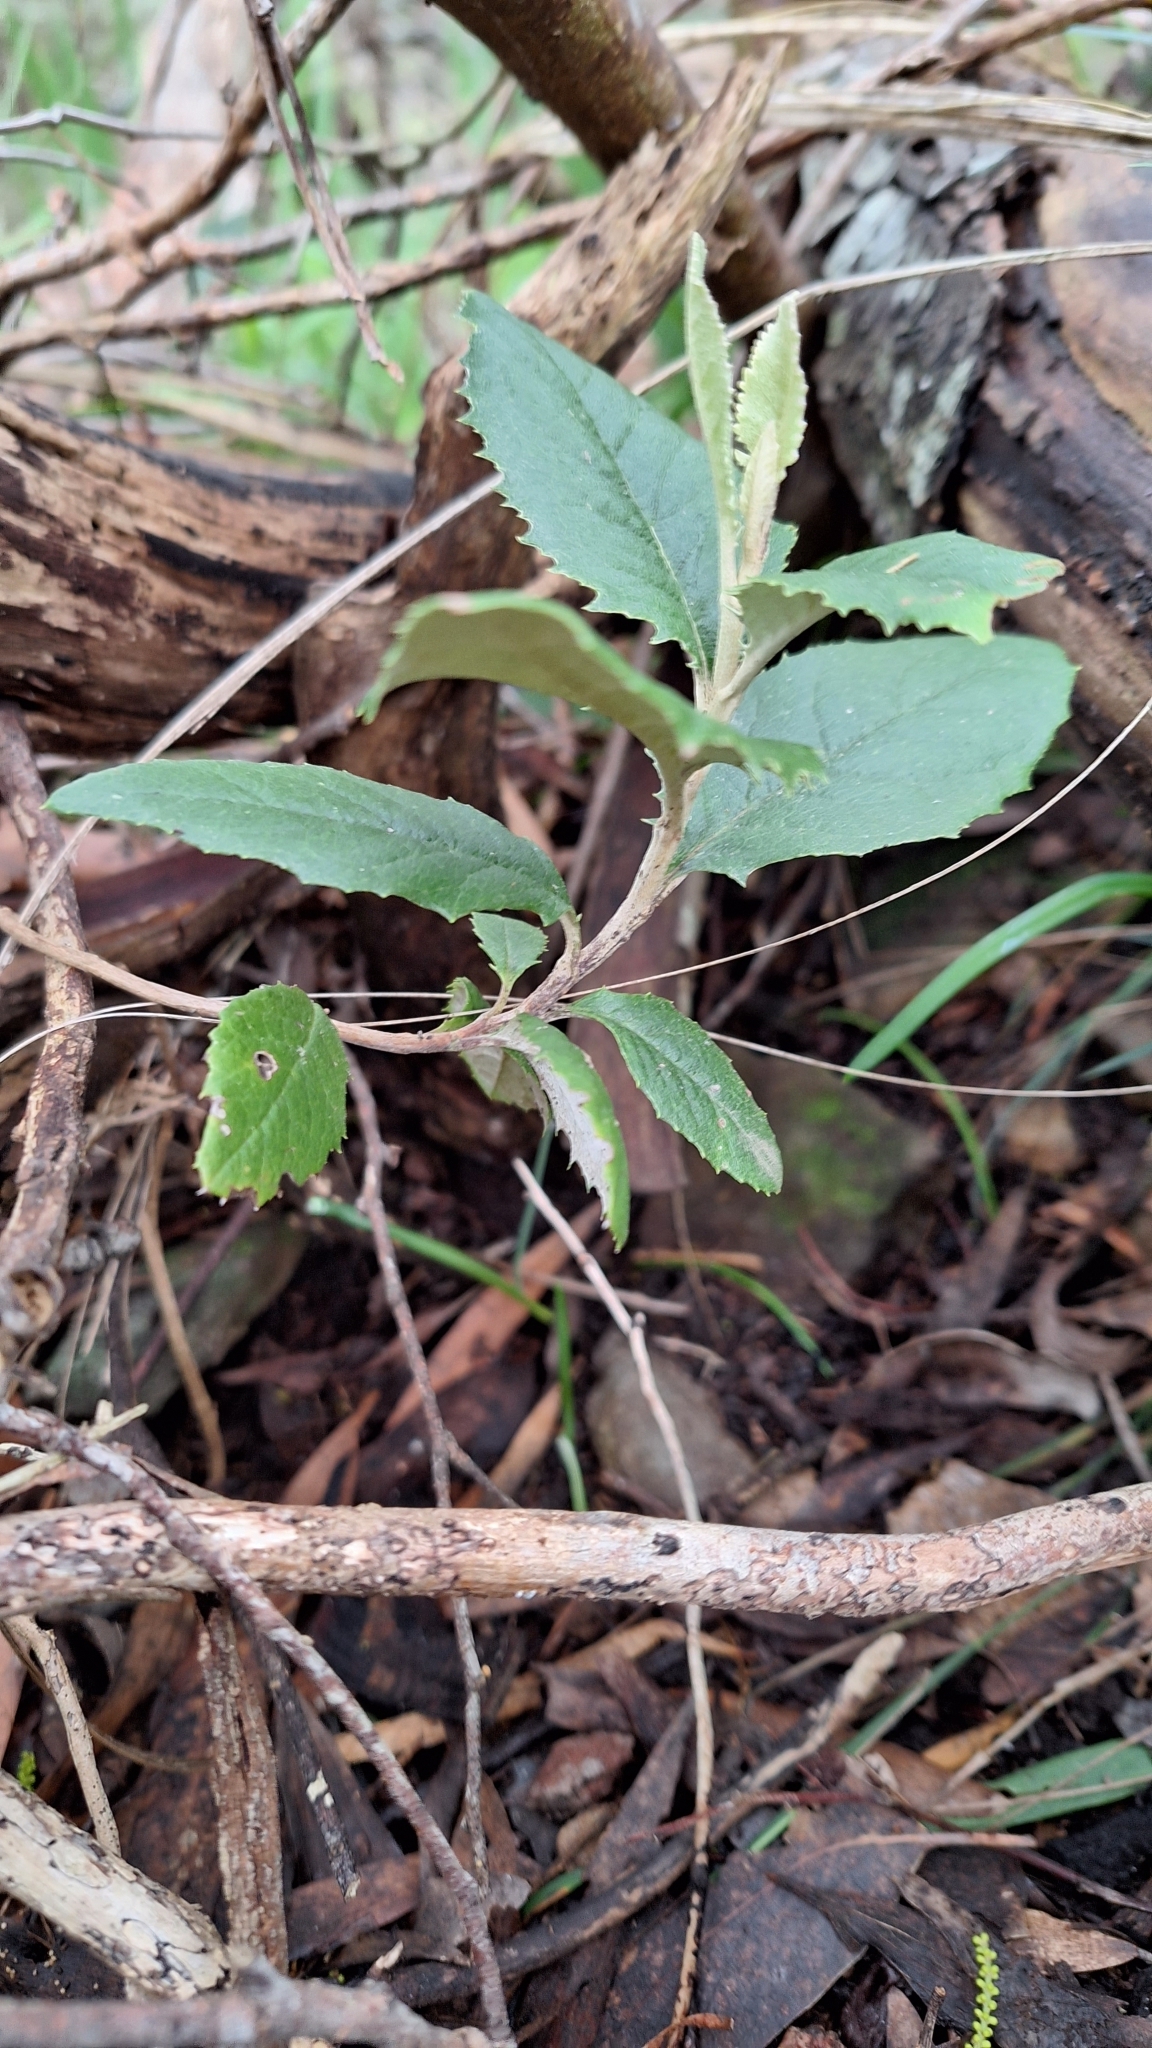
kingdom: Plantae
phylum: Tracheophyta
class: Magnoliopsida
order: Asterales
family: Asteraceae
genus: Olearia
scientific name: Olearia grandiflora
